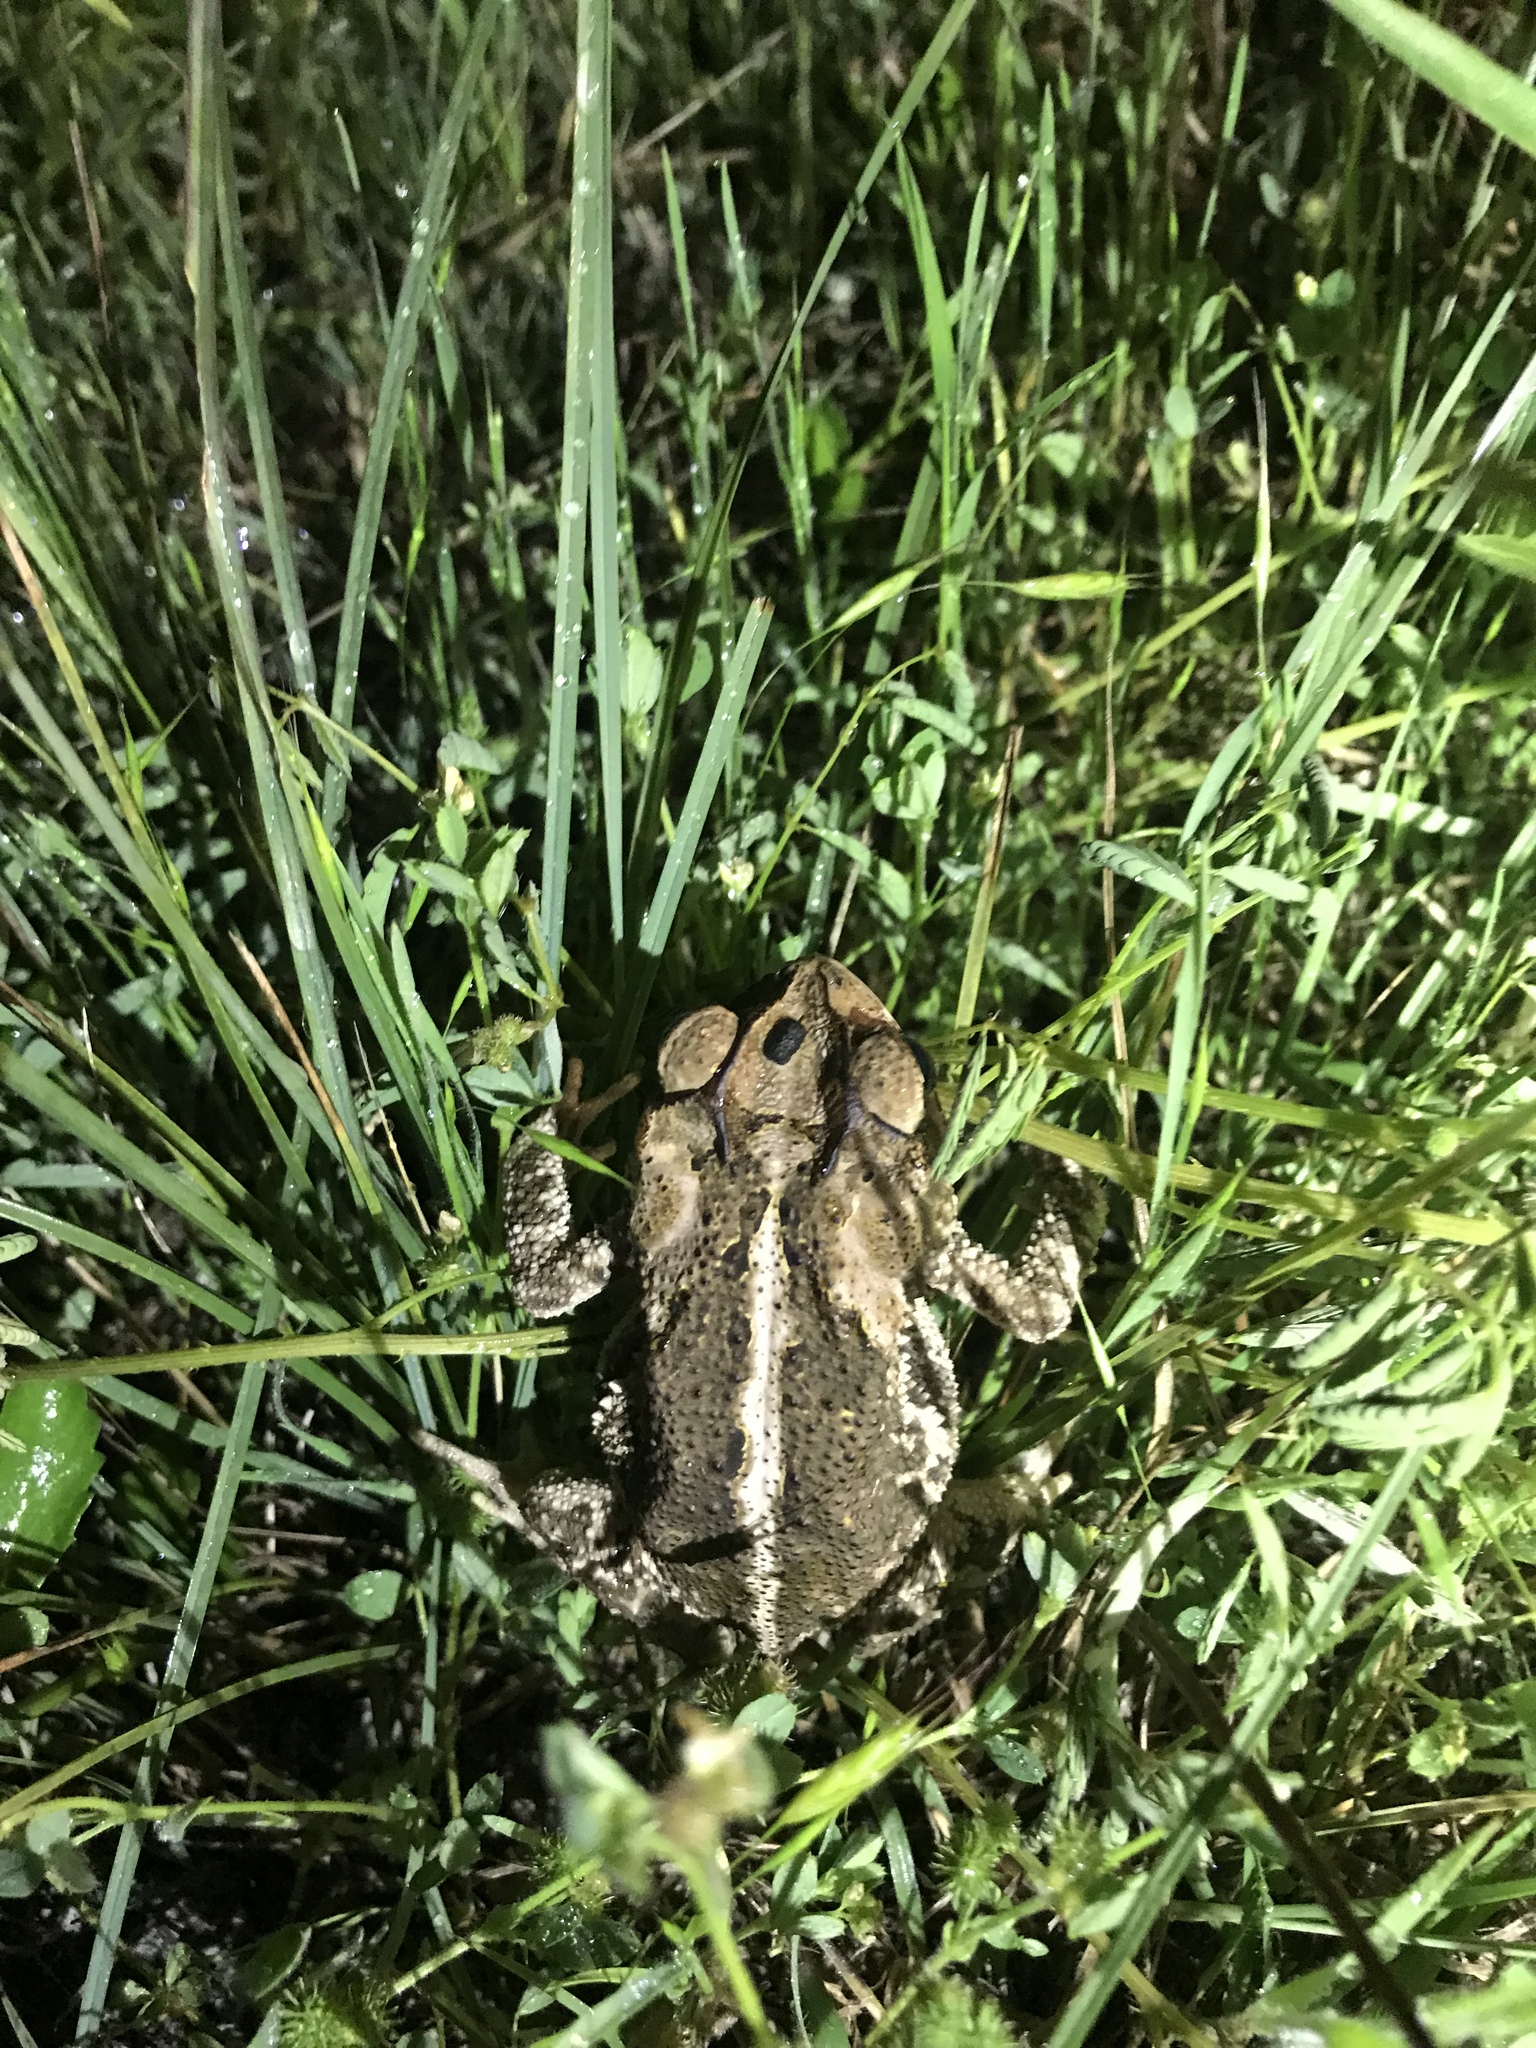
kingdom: Animalia
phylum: Chordata
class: Amphibia
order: Anura
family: Bufonidae
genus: Incilius
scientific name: Incilius nebulifer
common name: Gulf coast toad
